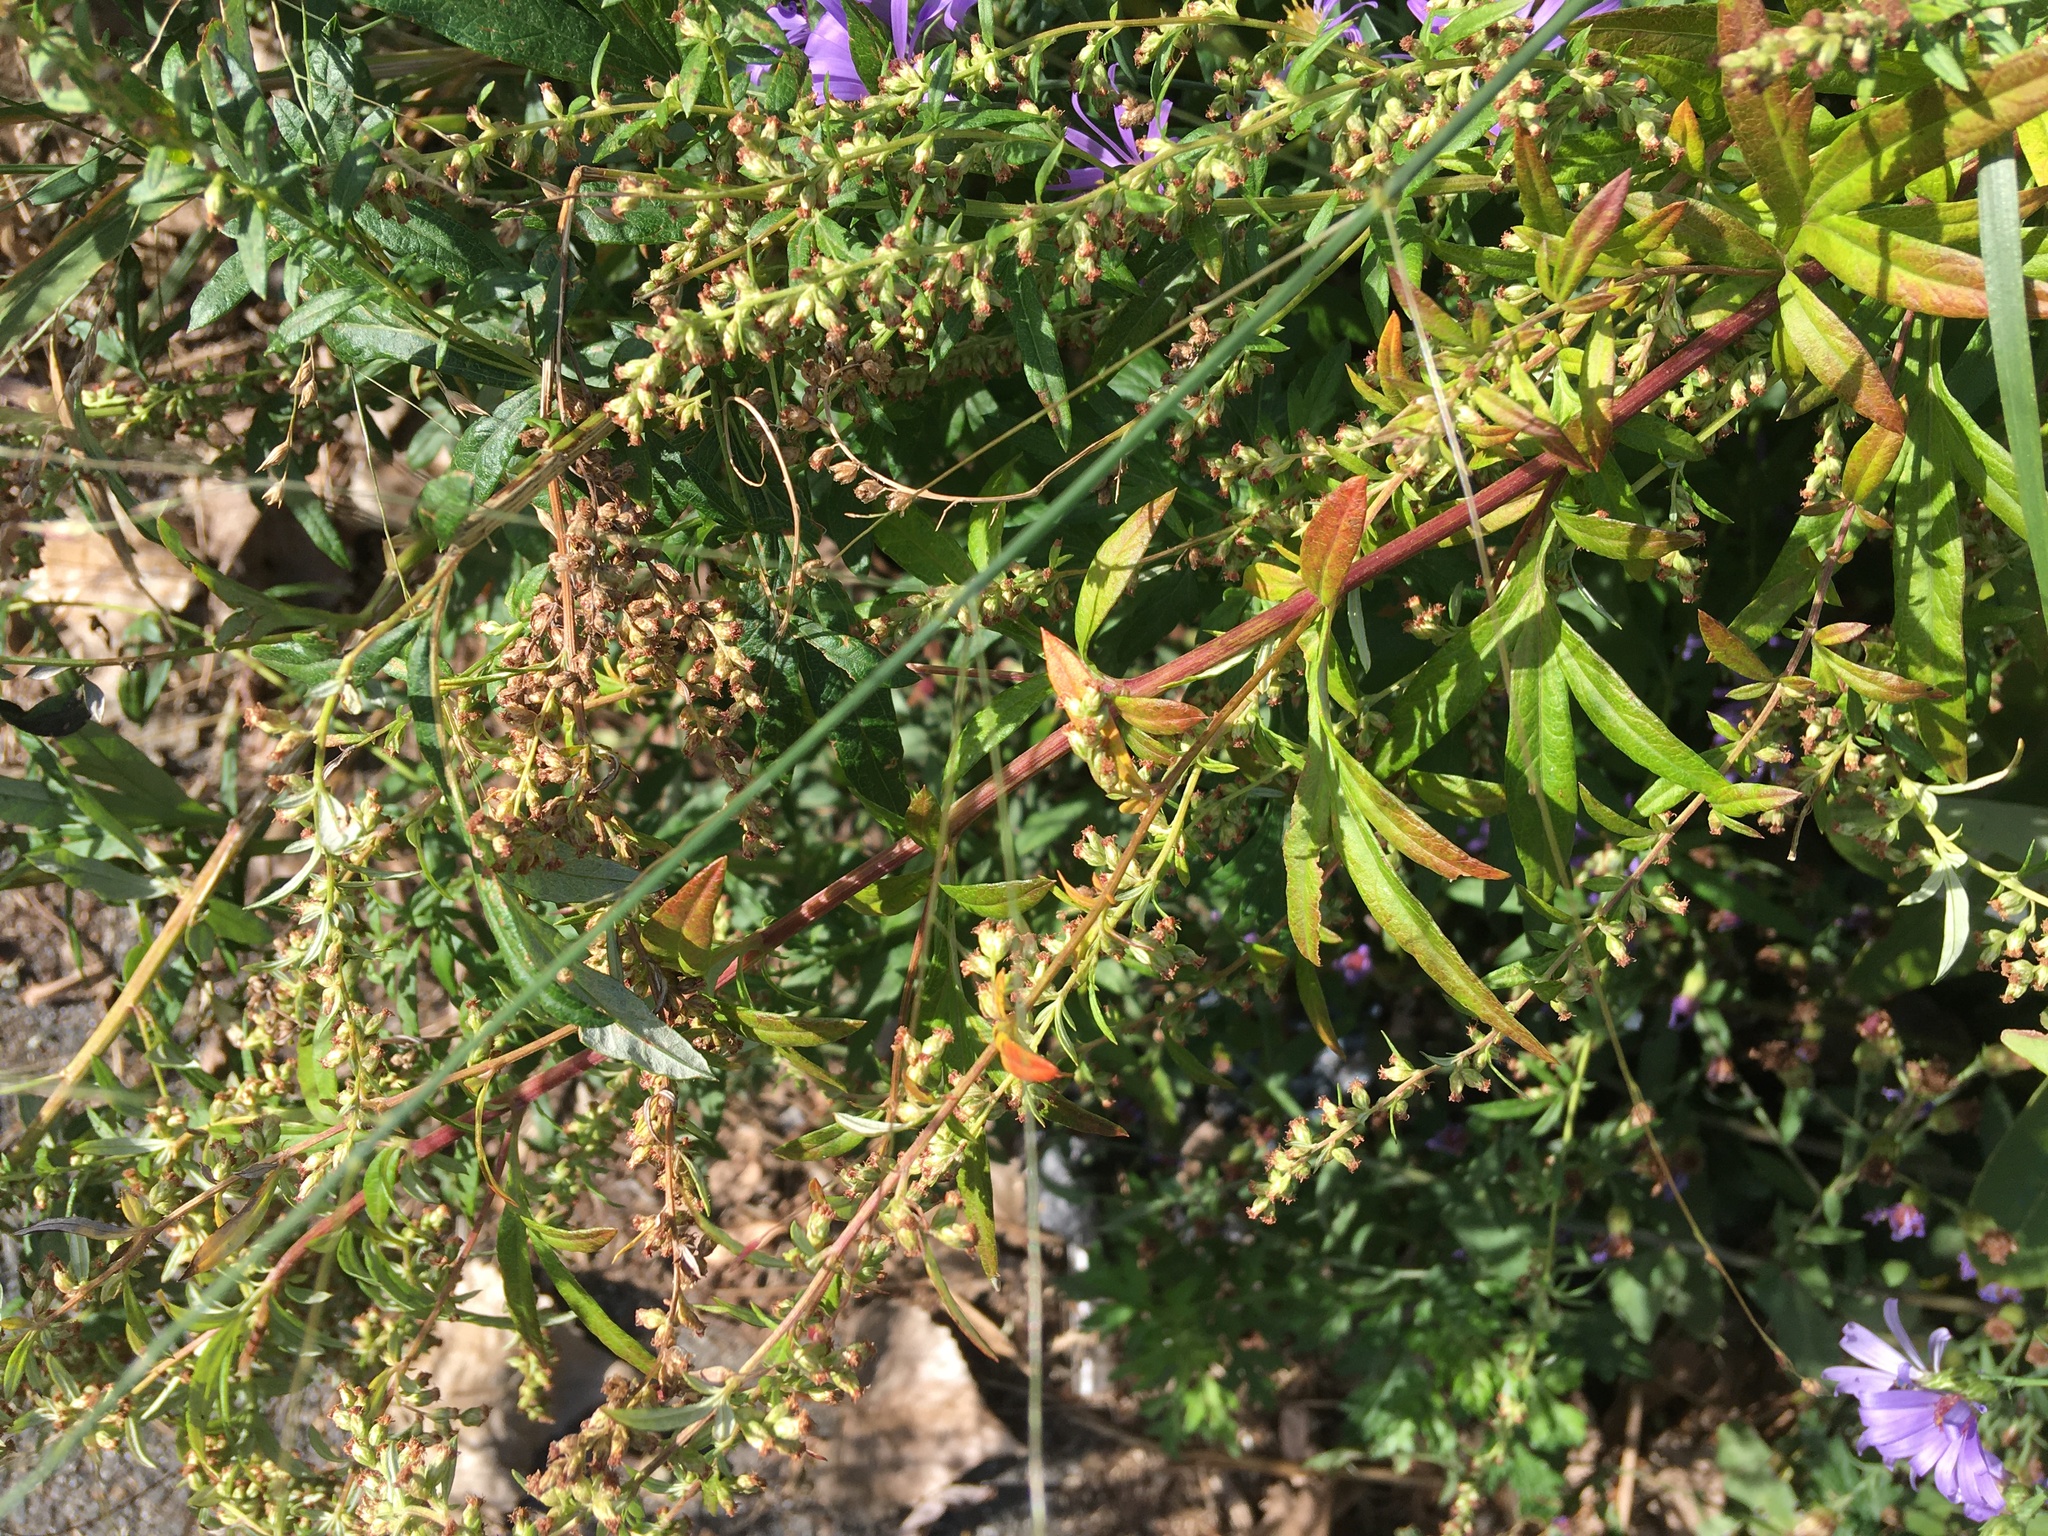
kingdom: Plantae
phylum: Tracheophyta
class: Magnoliopsida
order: Asterales
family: Asteraceae
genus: Artemisia
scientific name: Artemisia vulgaris
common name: Mugwort
